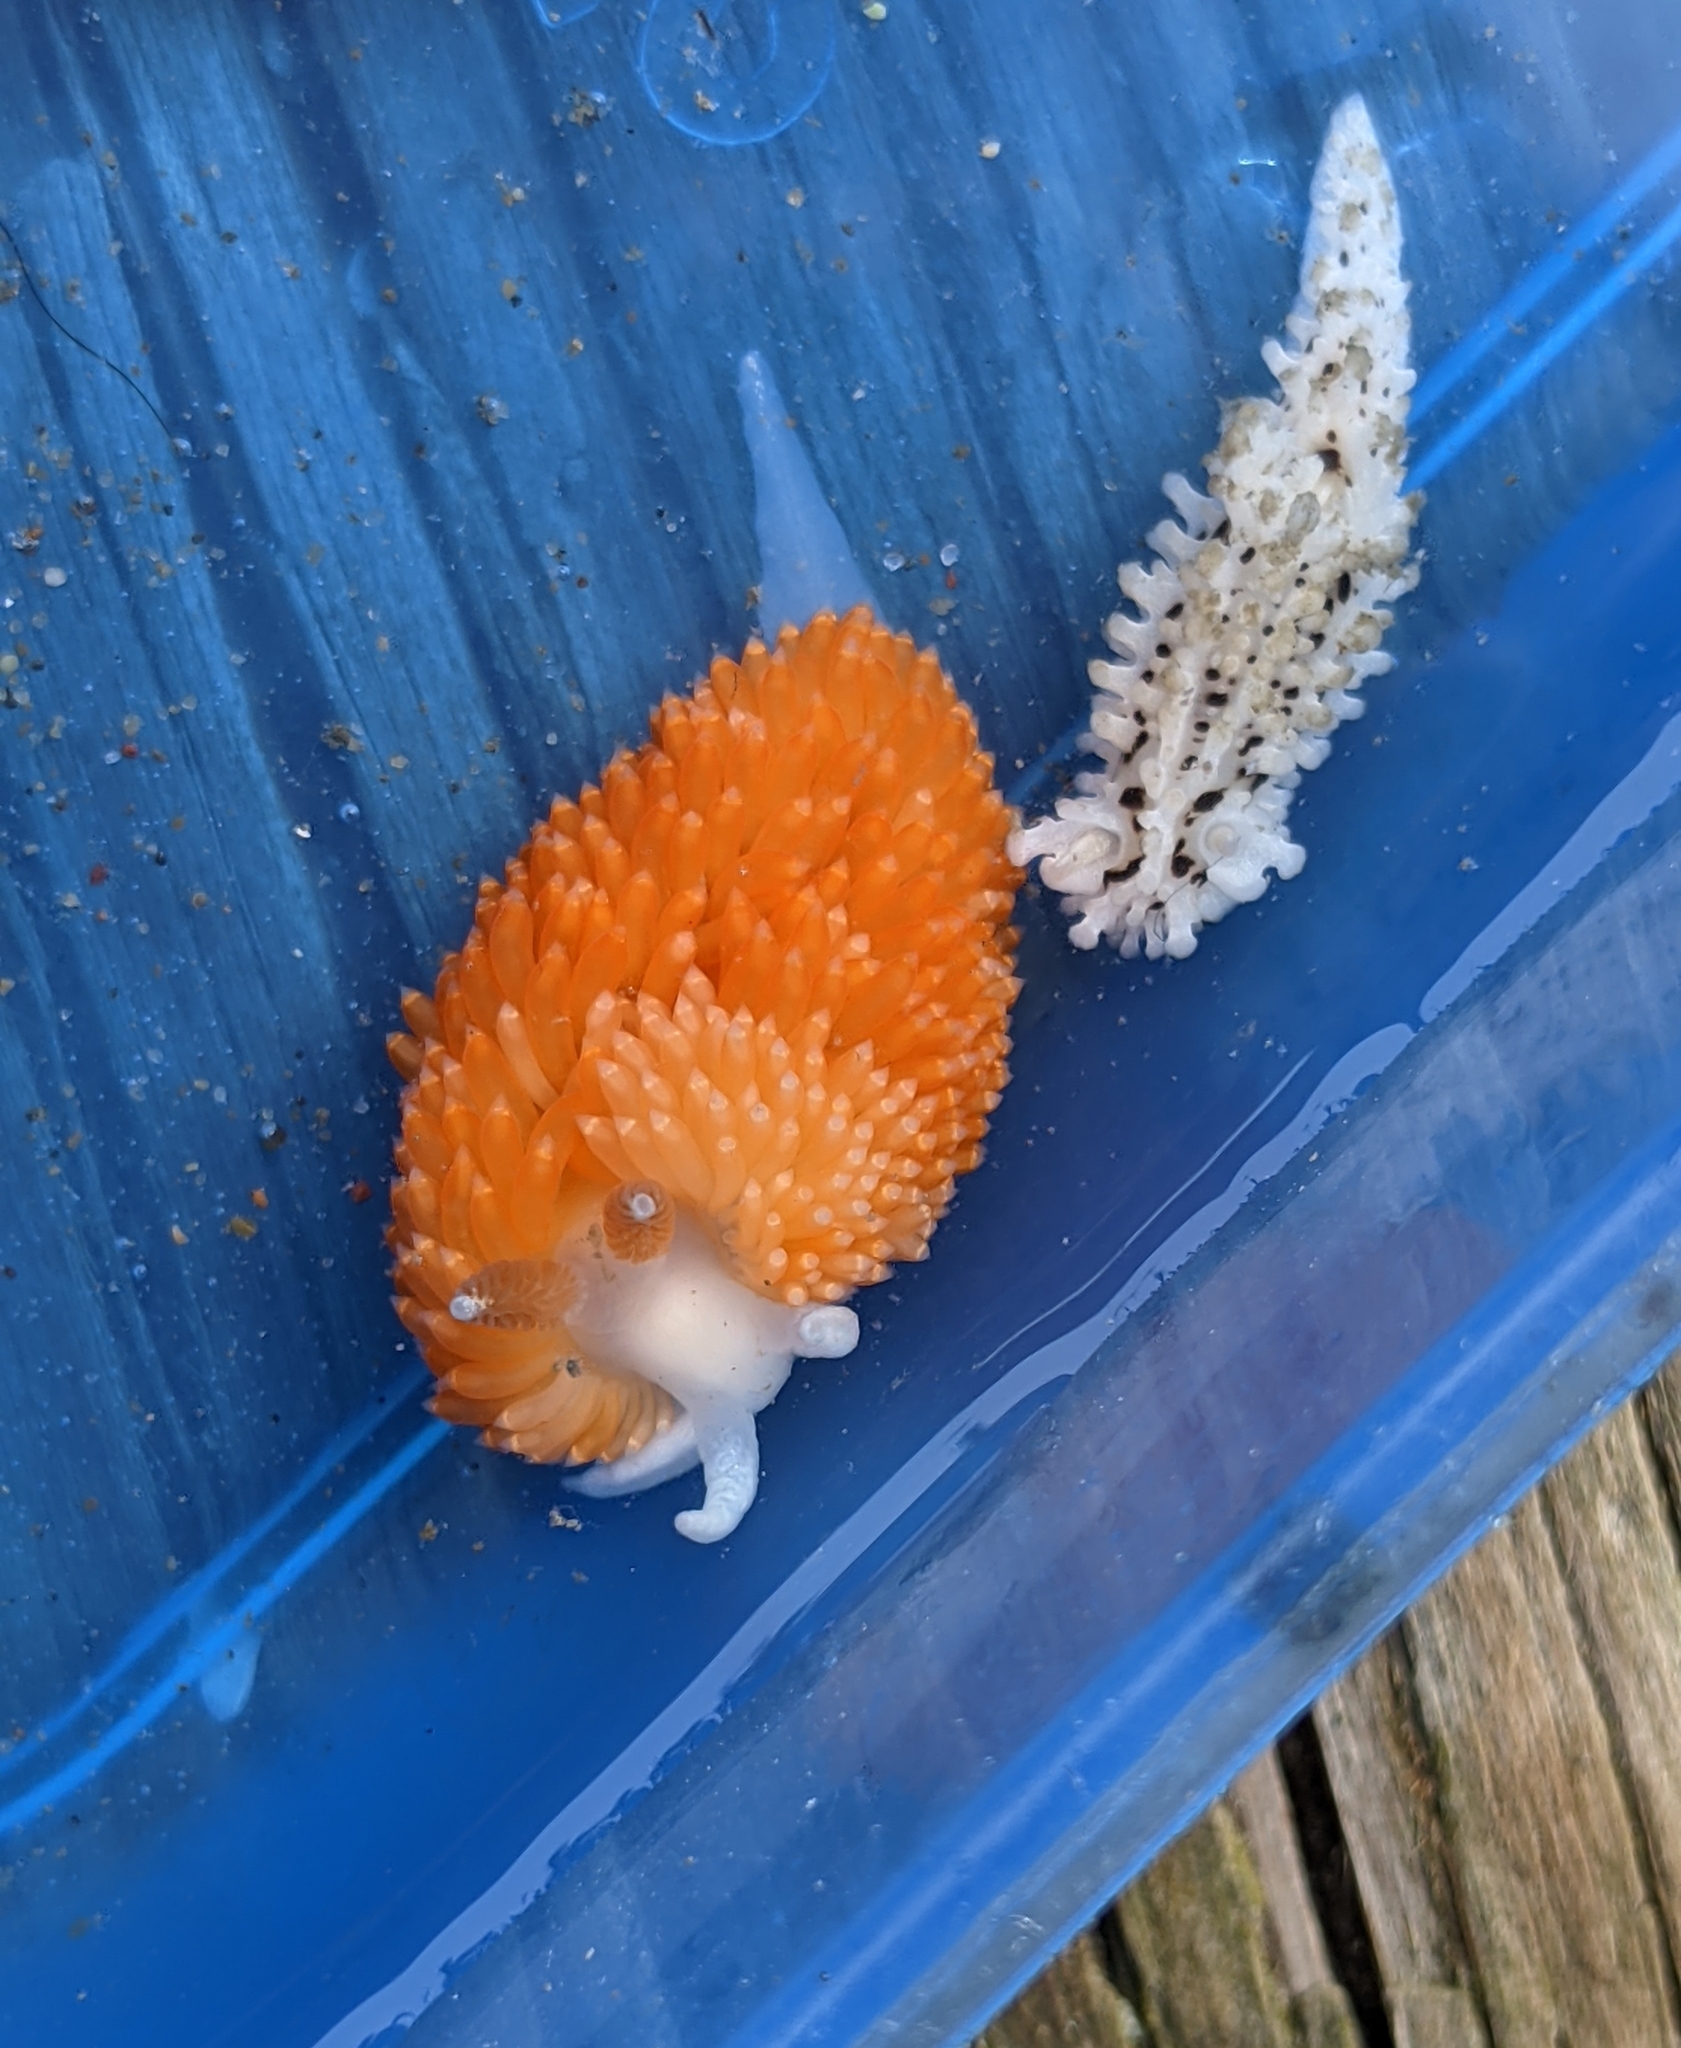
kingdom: Animalia
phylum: Mollusca
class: Gastropoda
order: Nudibranchia
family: Aegiridae
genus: Aegires
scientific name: Aegires albopunctatus
